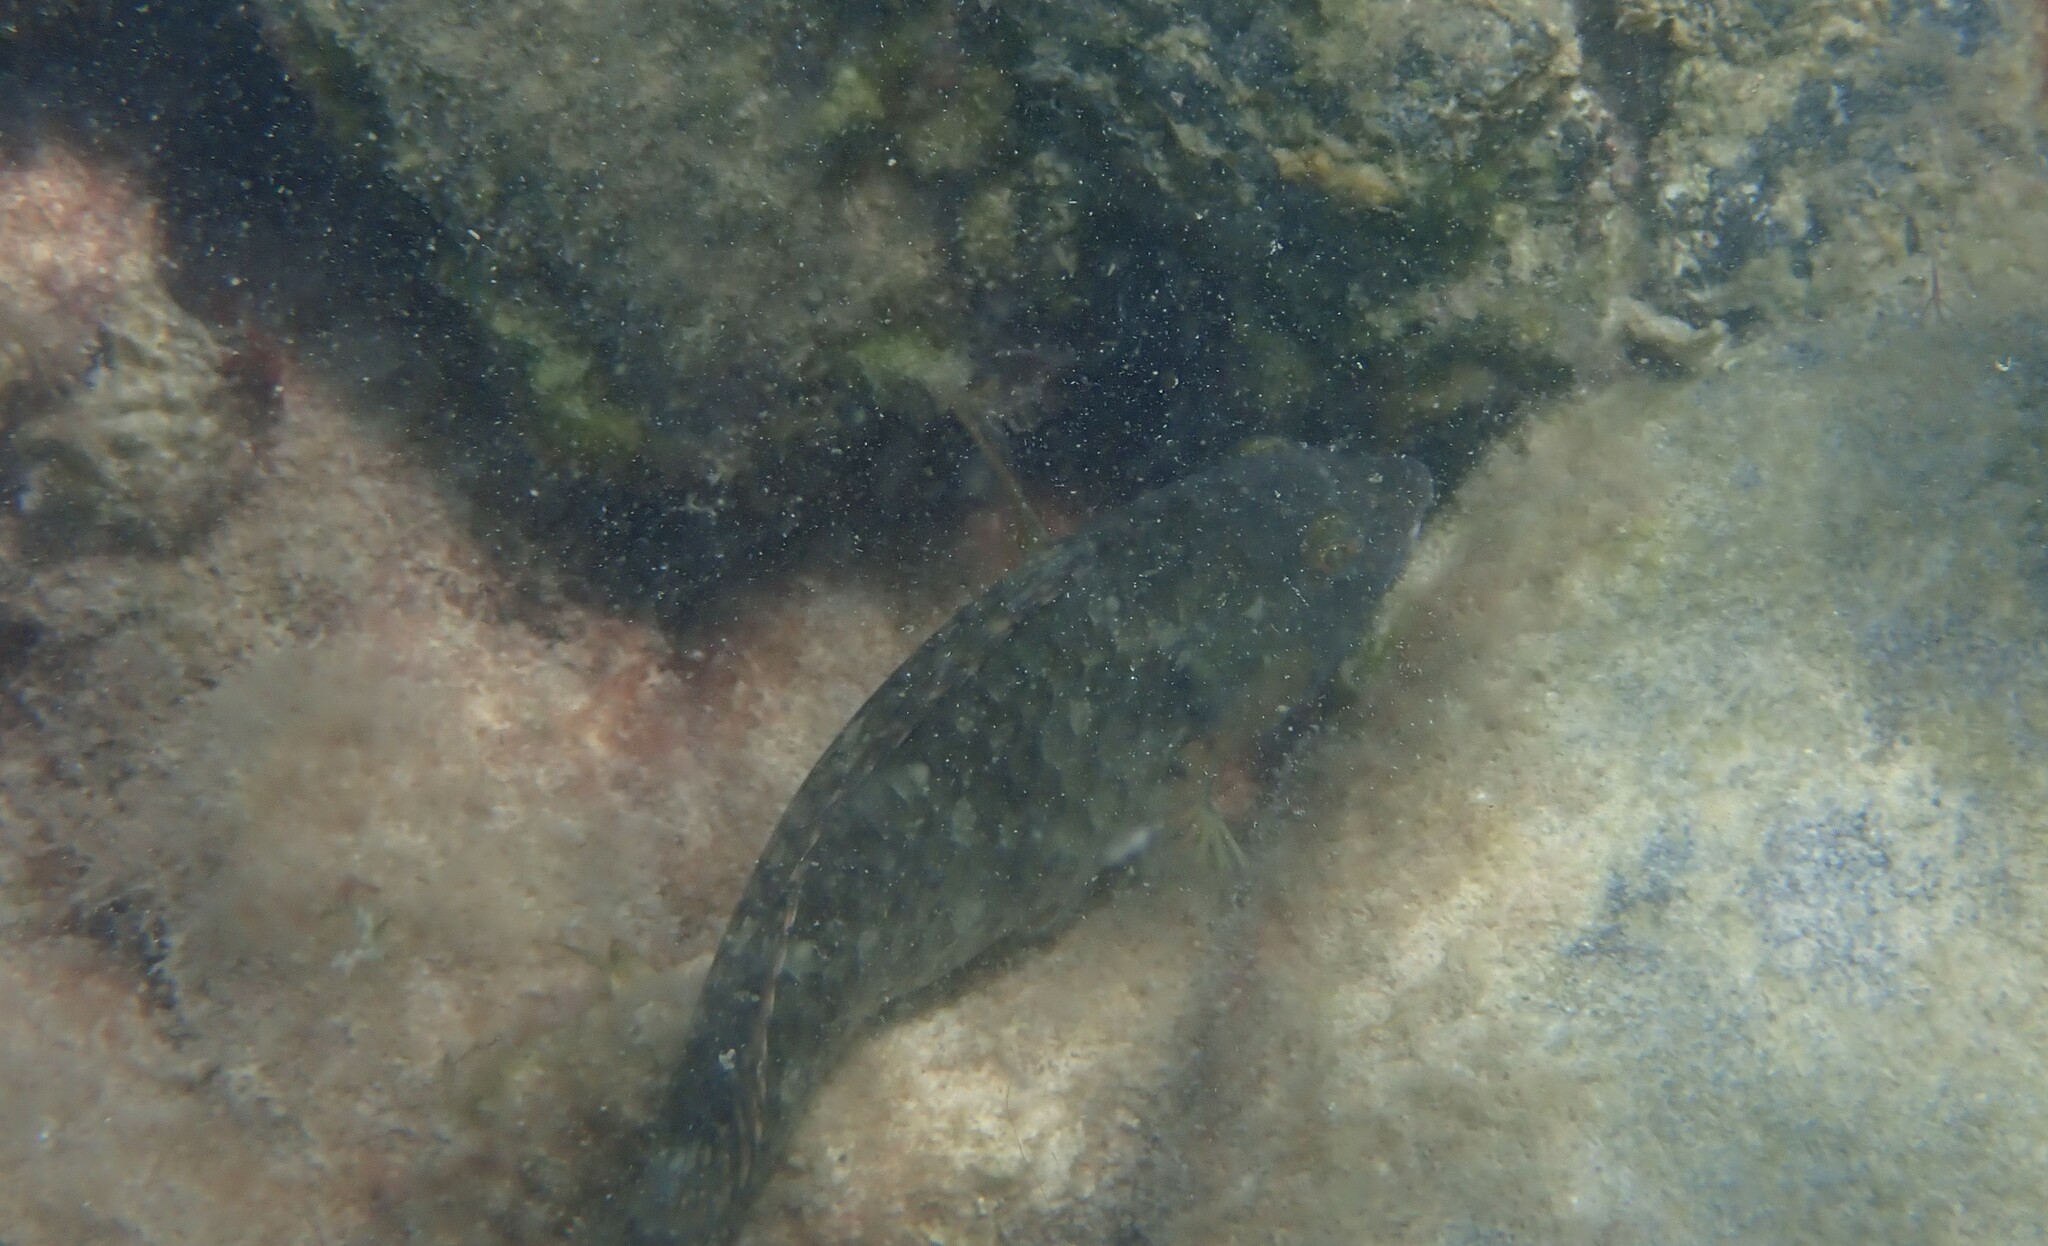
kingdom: Animalia
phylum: Chordata
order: Perciformes
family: Scaridae
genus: Sparisoma
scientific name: Sparisoma cretense
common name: Parrotfish
